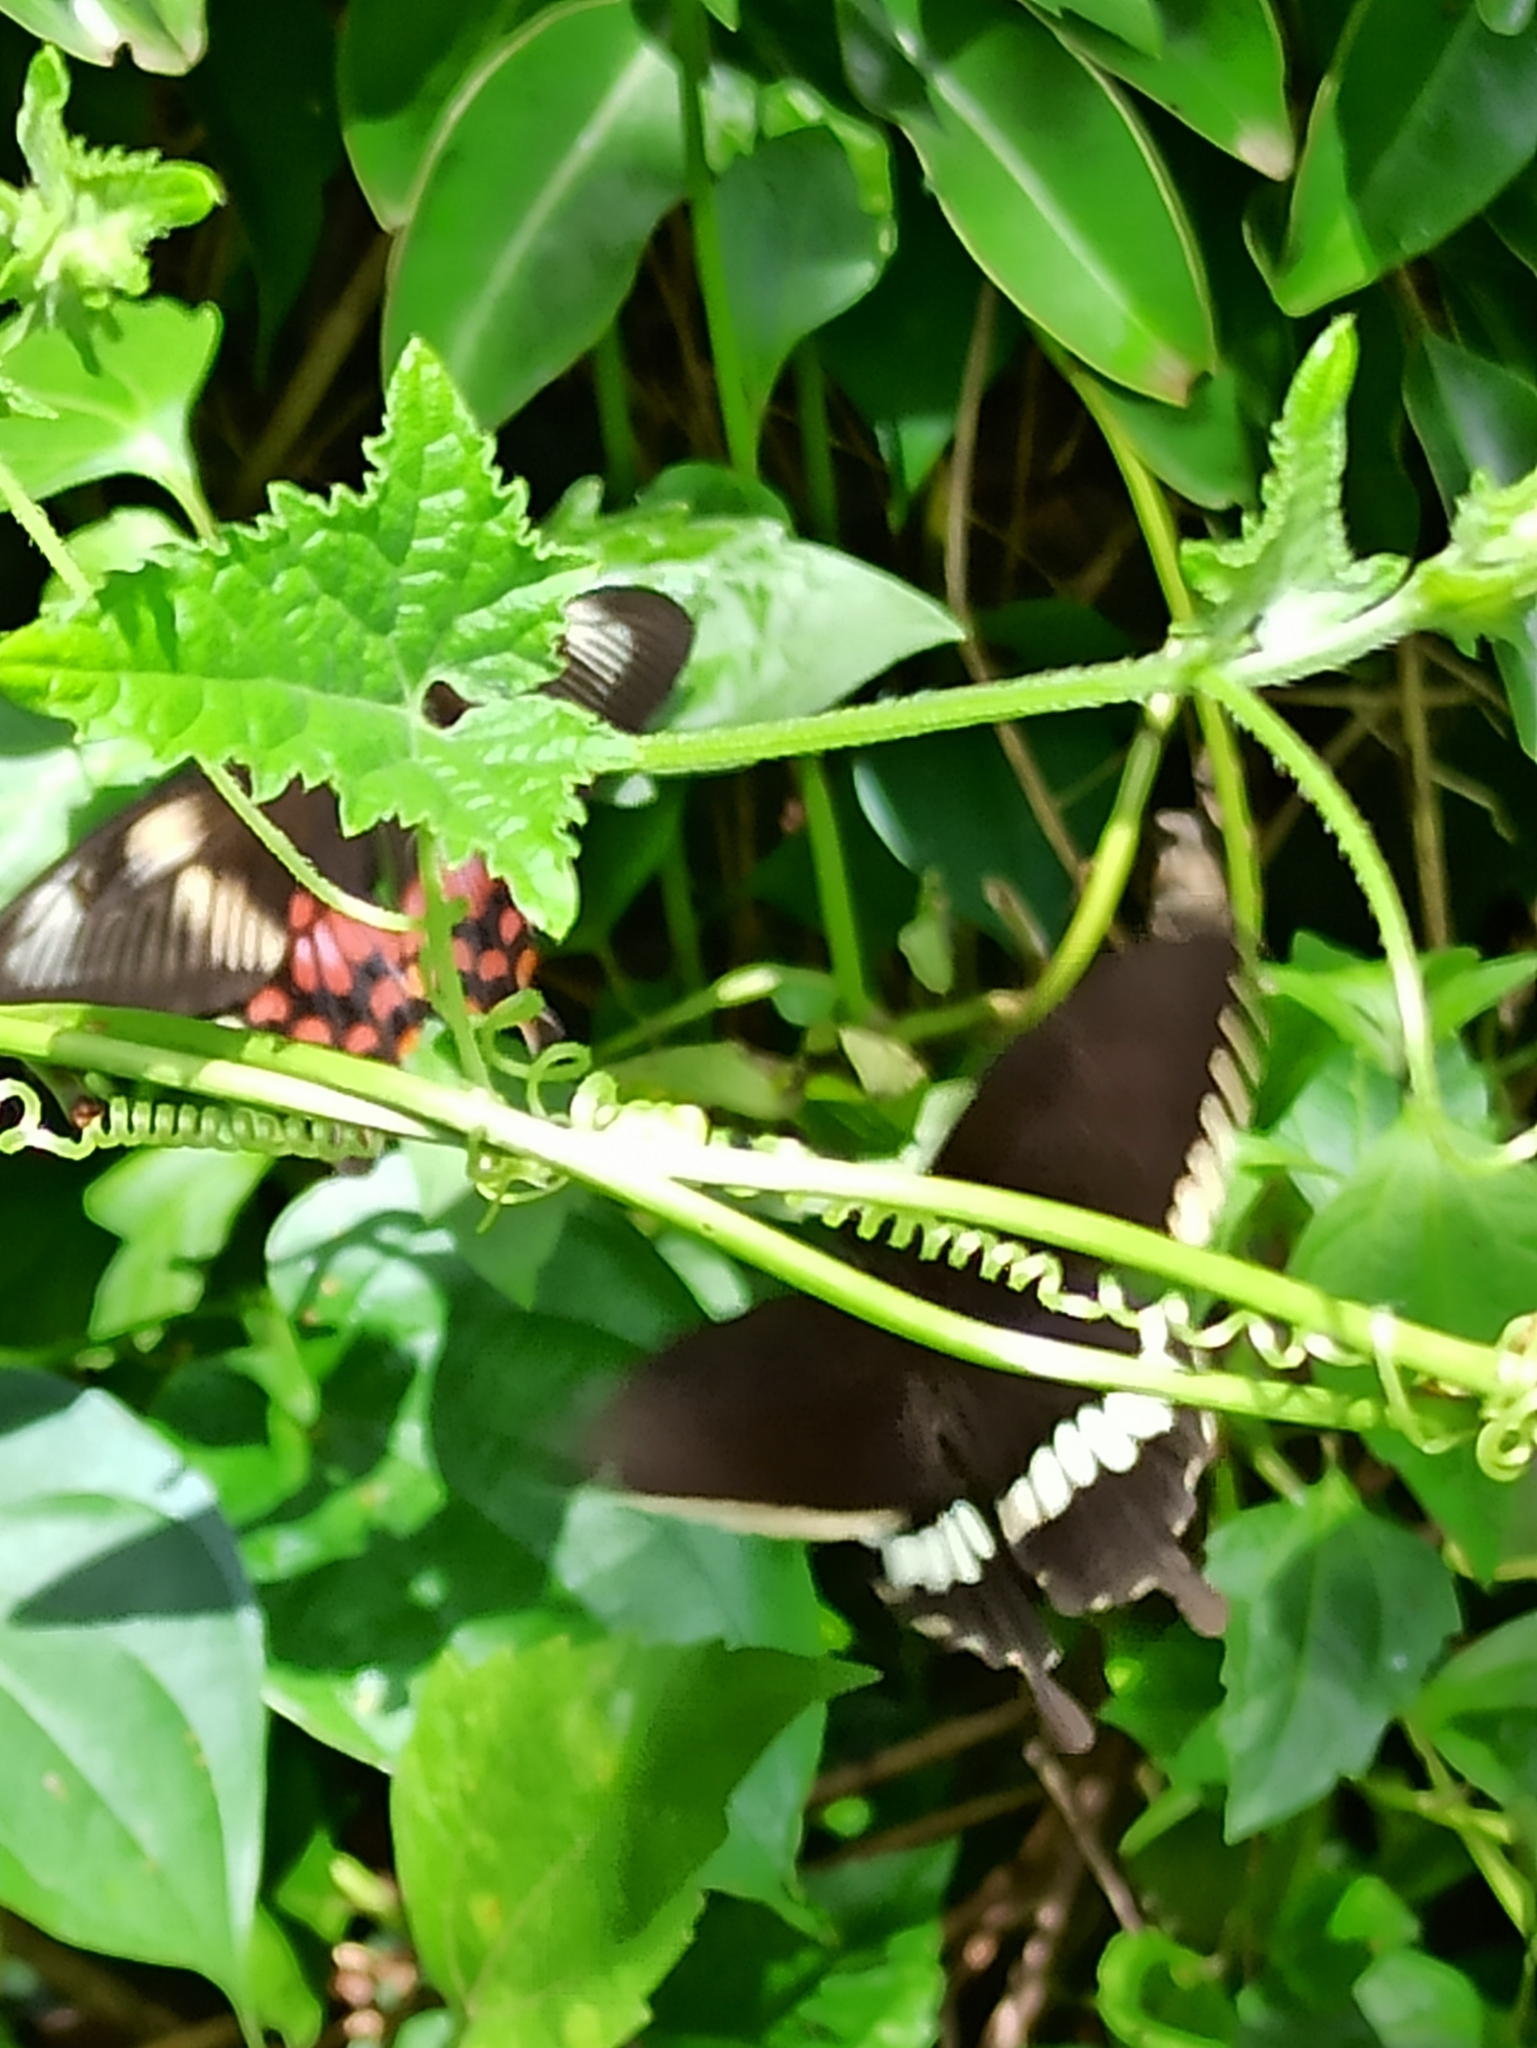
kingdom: Animalia
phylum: Arthropoda
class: Insecta
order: Lepidoptera
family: Papilionidae
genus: Papilio
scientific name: Papilio polytes
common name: Common mormon
